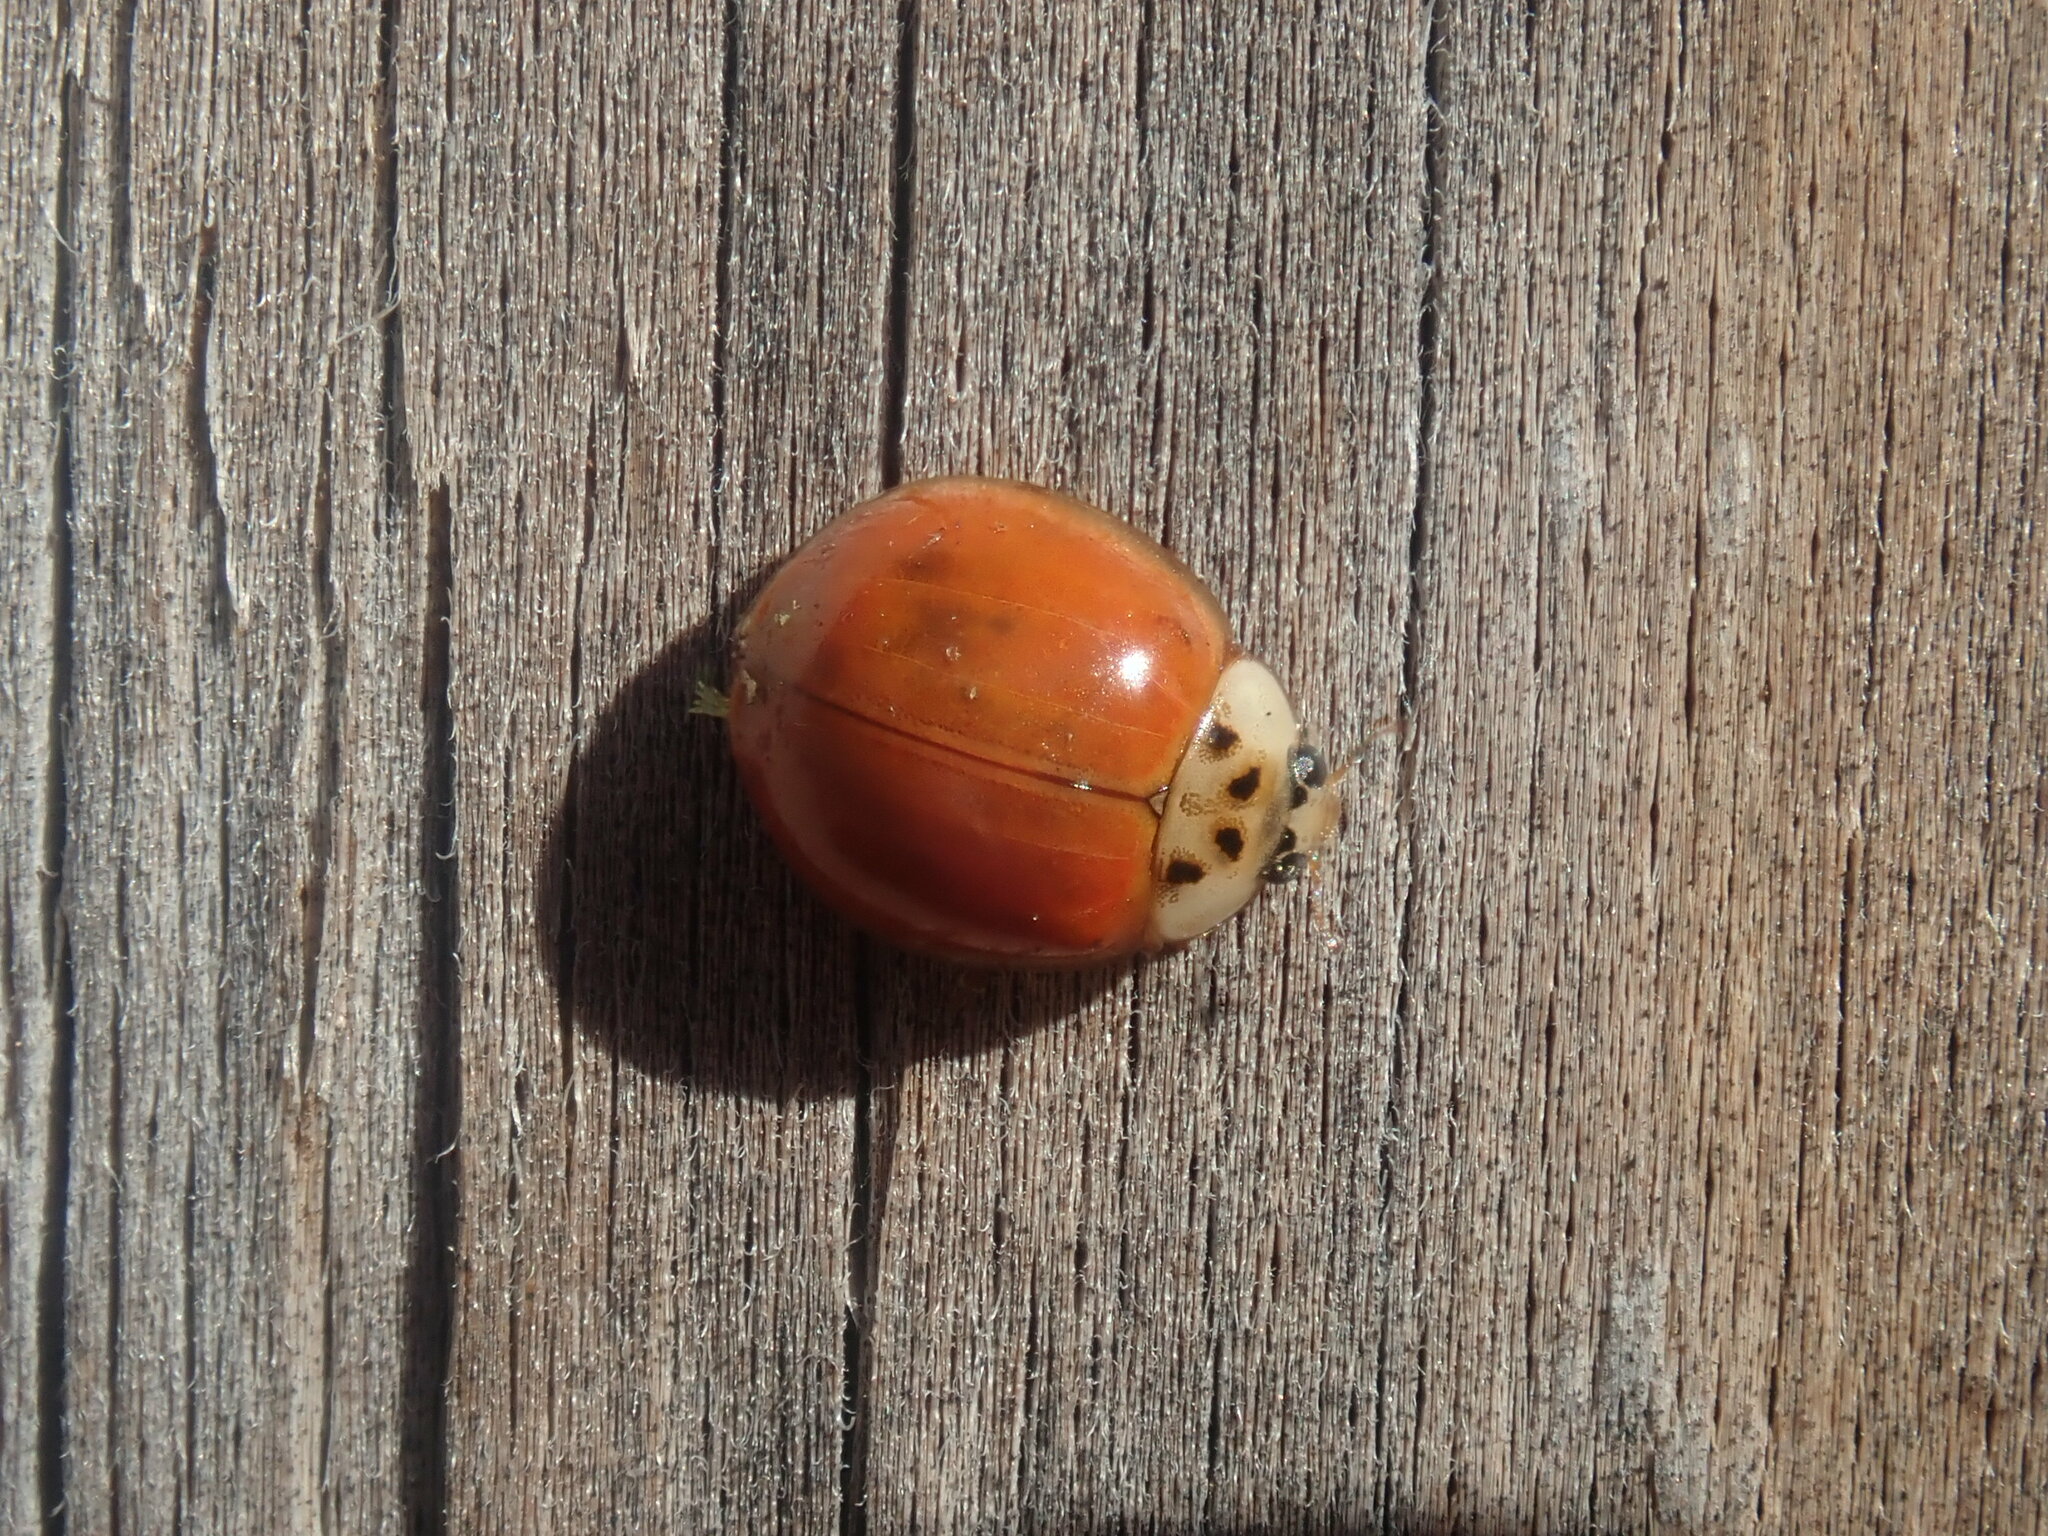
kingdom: Animalia
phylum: Arthropoda
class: Insecta
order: Coleoptera
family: Coccinellidae
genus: Harmonia
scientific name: Harmonia axyridis
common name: Harlequin ladybird
